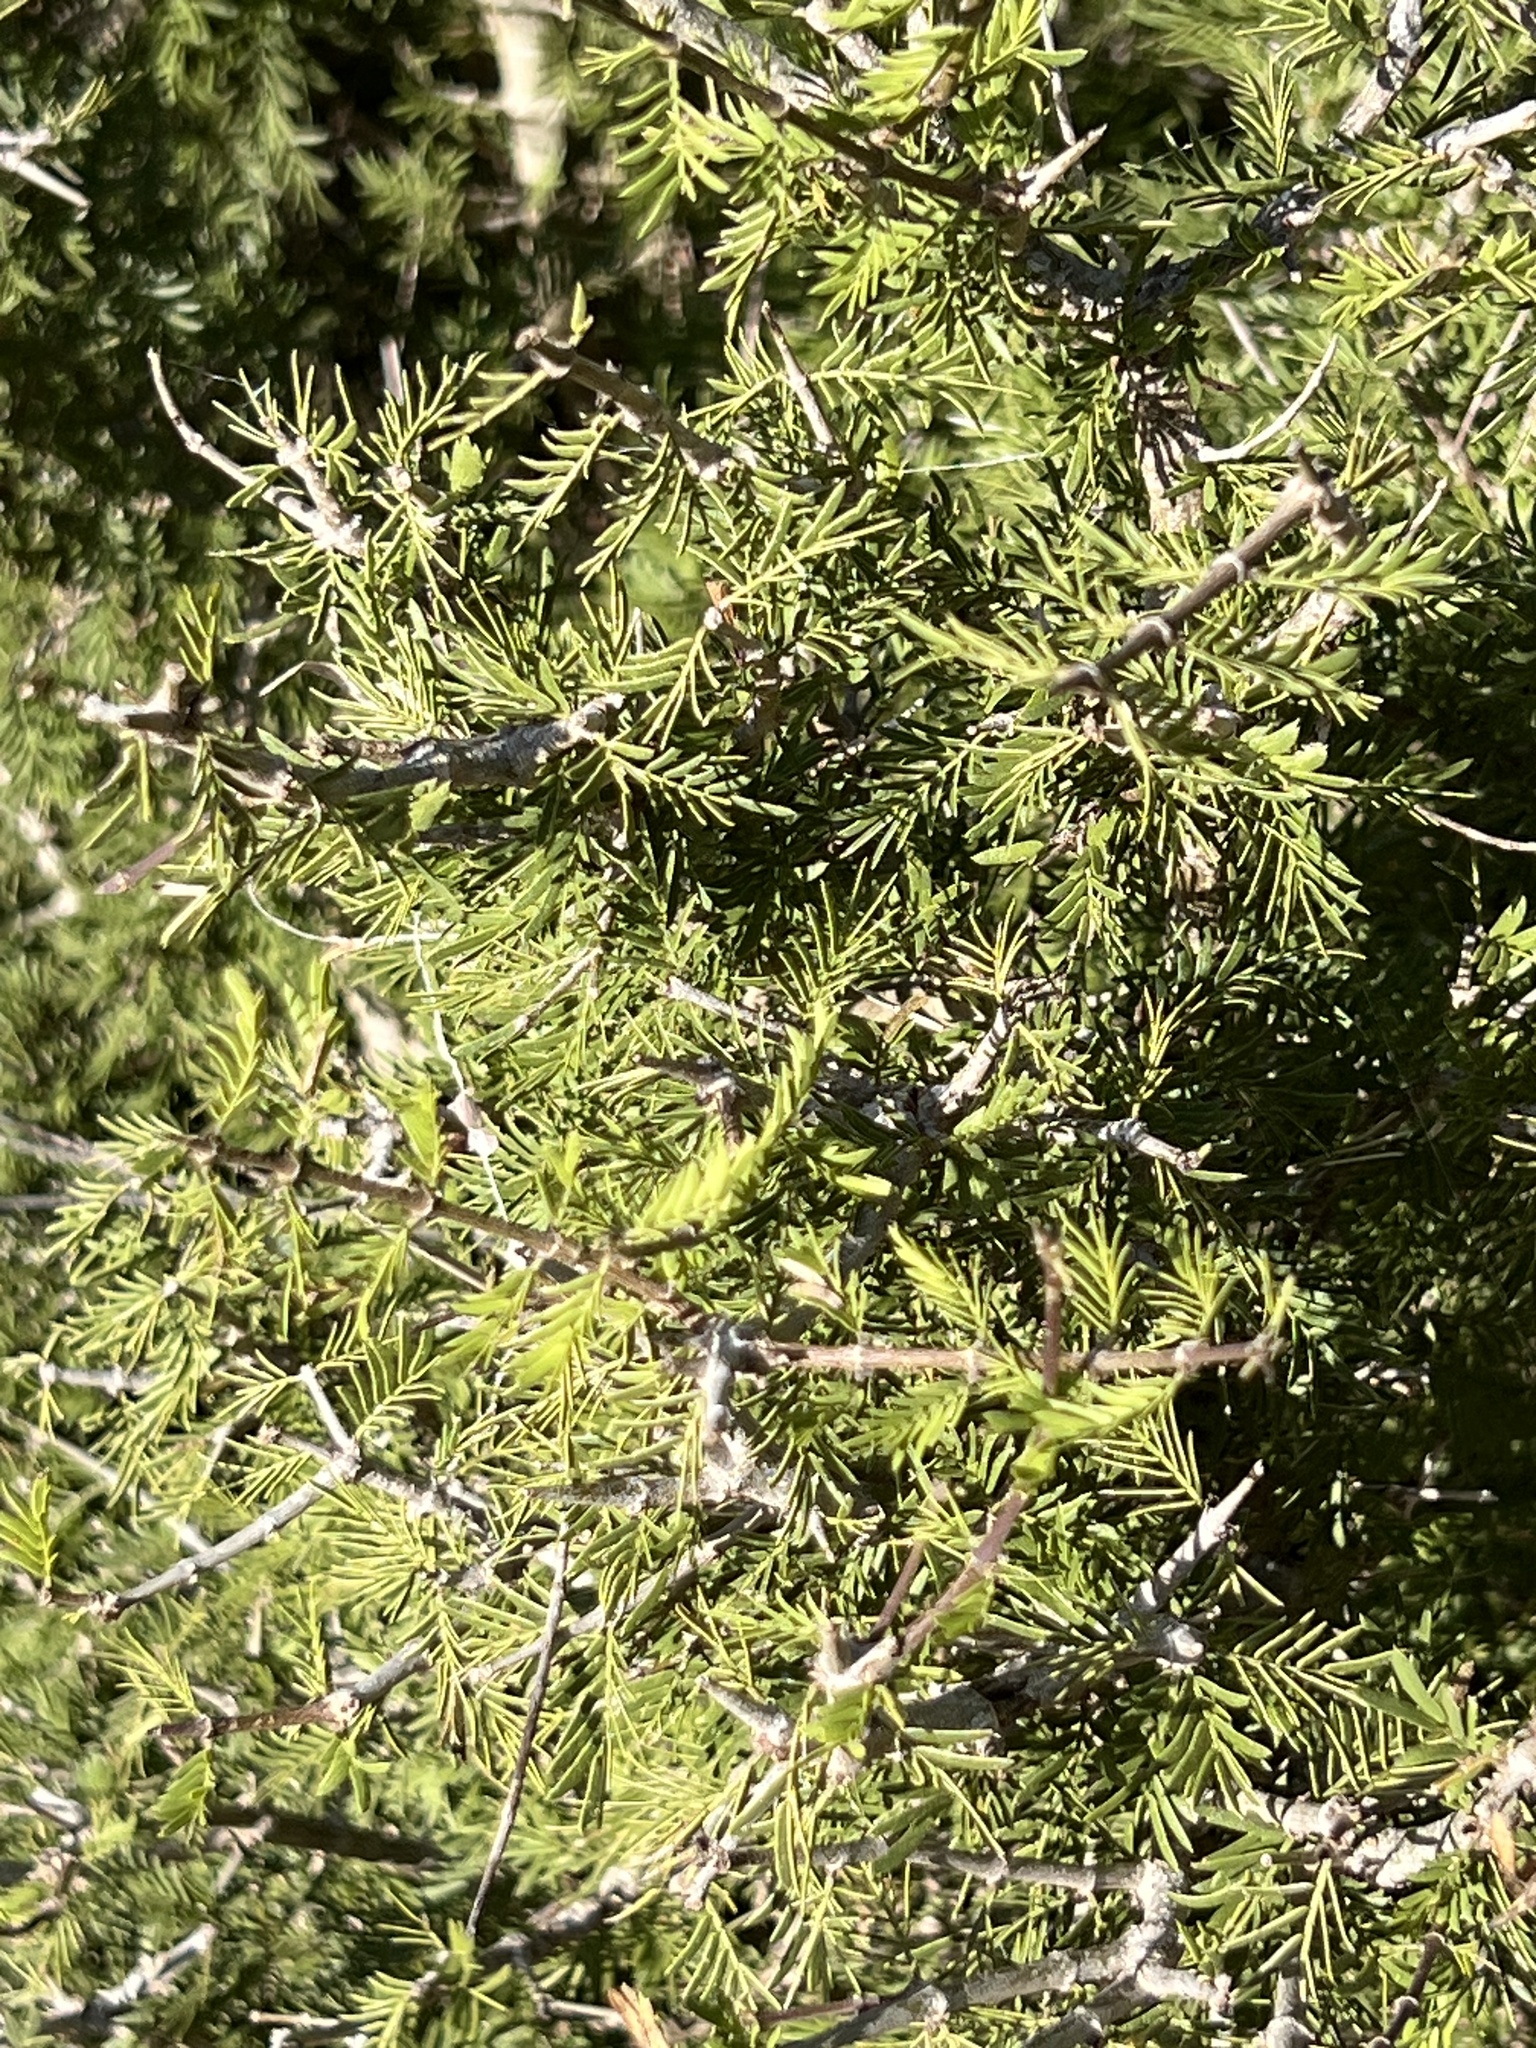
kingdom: Plantae
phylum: Tracheophyta
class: Magnoliopsida
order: Zygophyllales
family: Zygophyllaceae
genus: Porlieria
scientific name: Porlieria angustifolia
